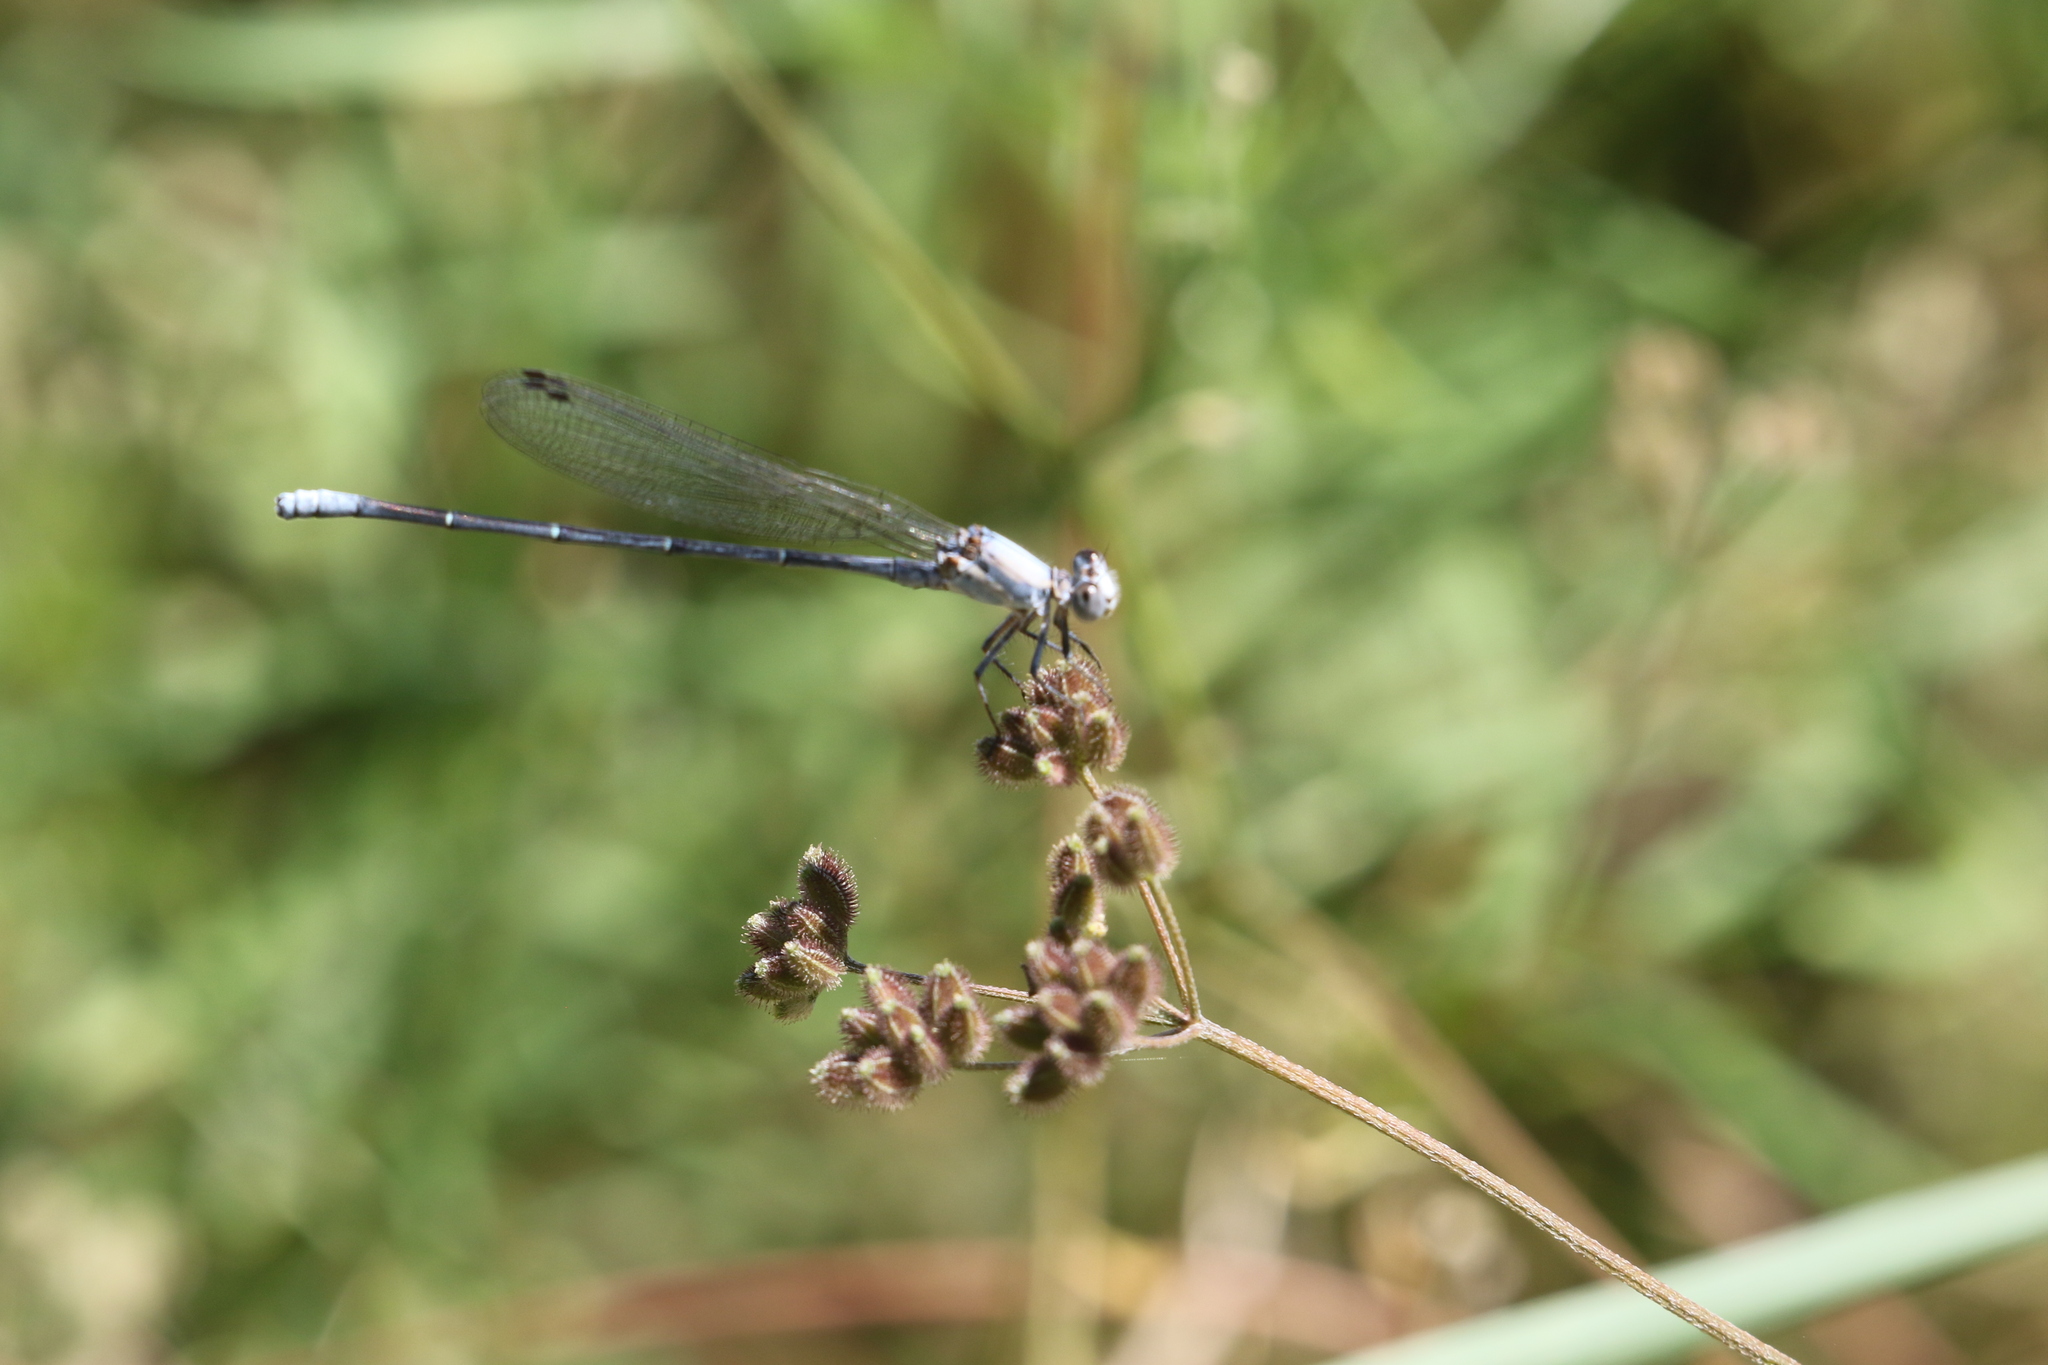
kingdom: Animalia
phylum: Arthropoda
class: Insecta
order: Odonata
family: Coenagrionidae
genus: Argia
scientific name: Argia moesta
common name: Powdered dancer
